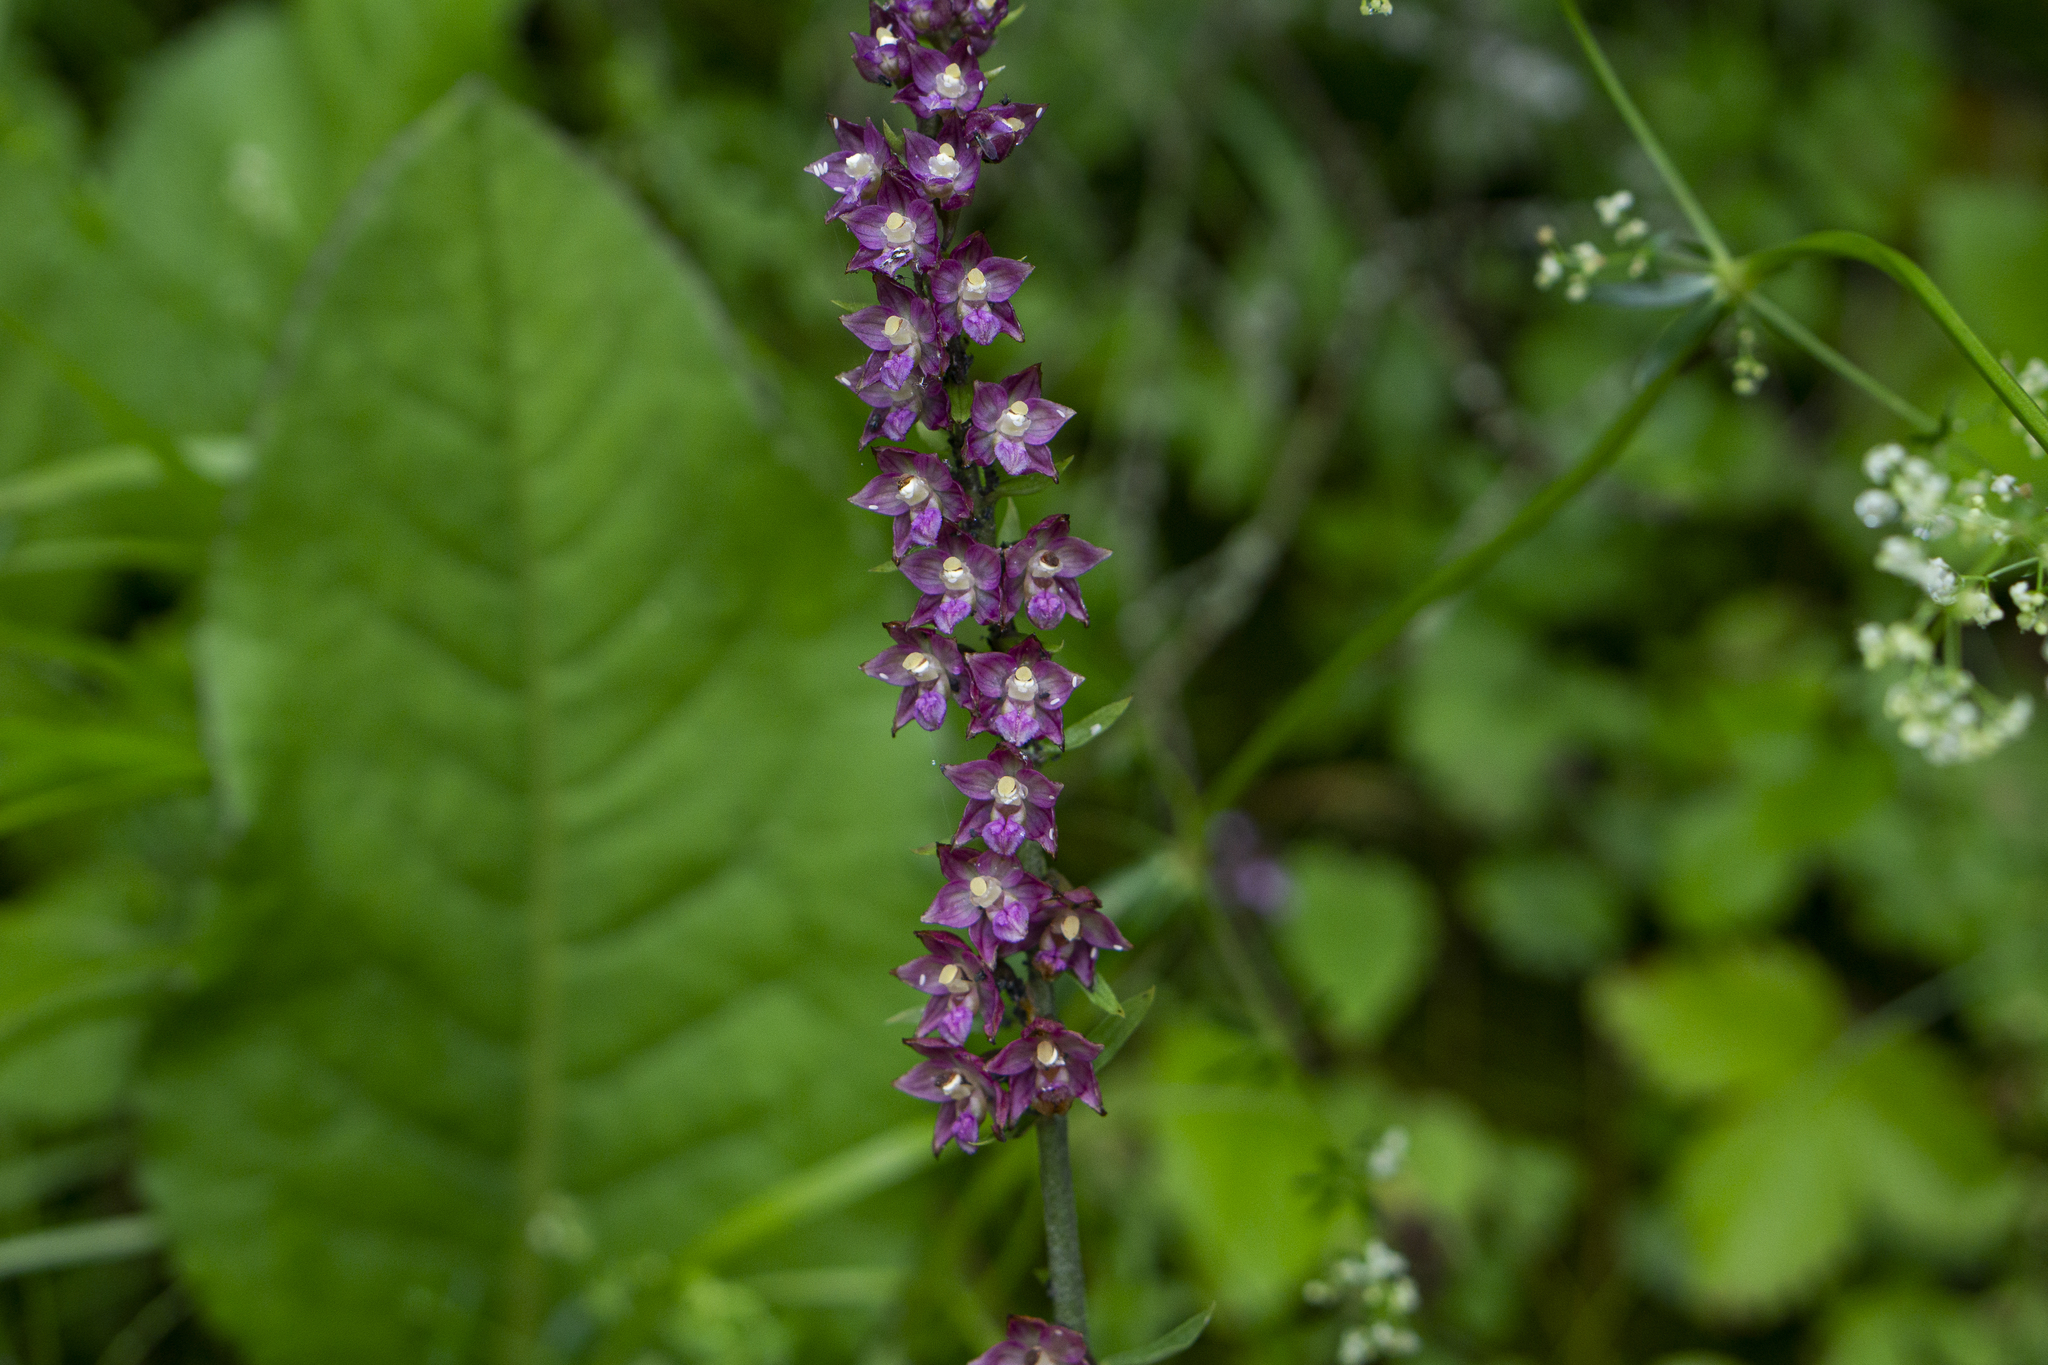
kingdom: Plantae
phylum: Tracheophyta
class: Liliopsida
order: Asparagales
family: Orchidaceae
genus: Epipactis
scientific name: Epipactis atrorubens
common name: Dark-red helleborine
